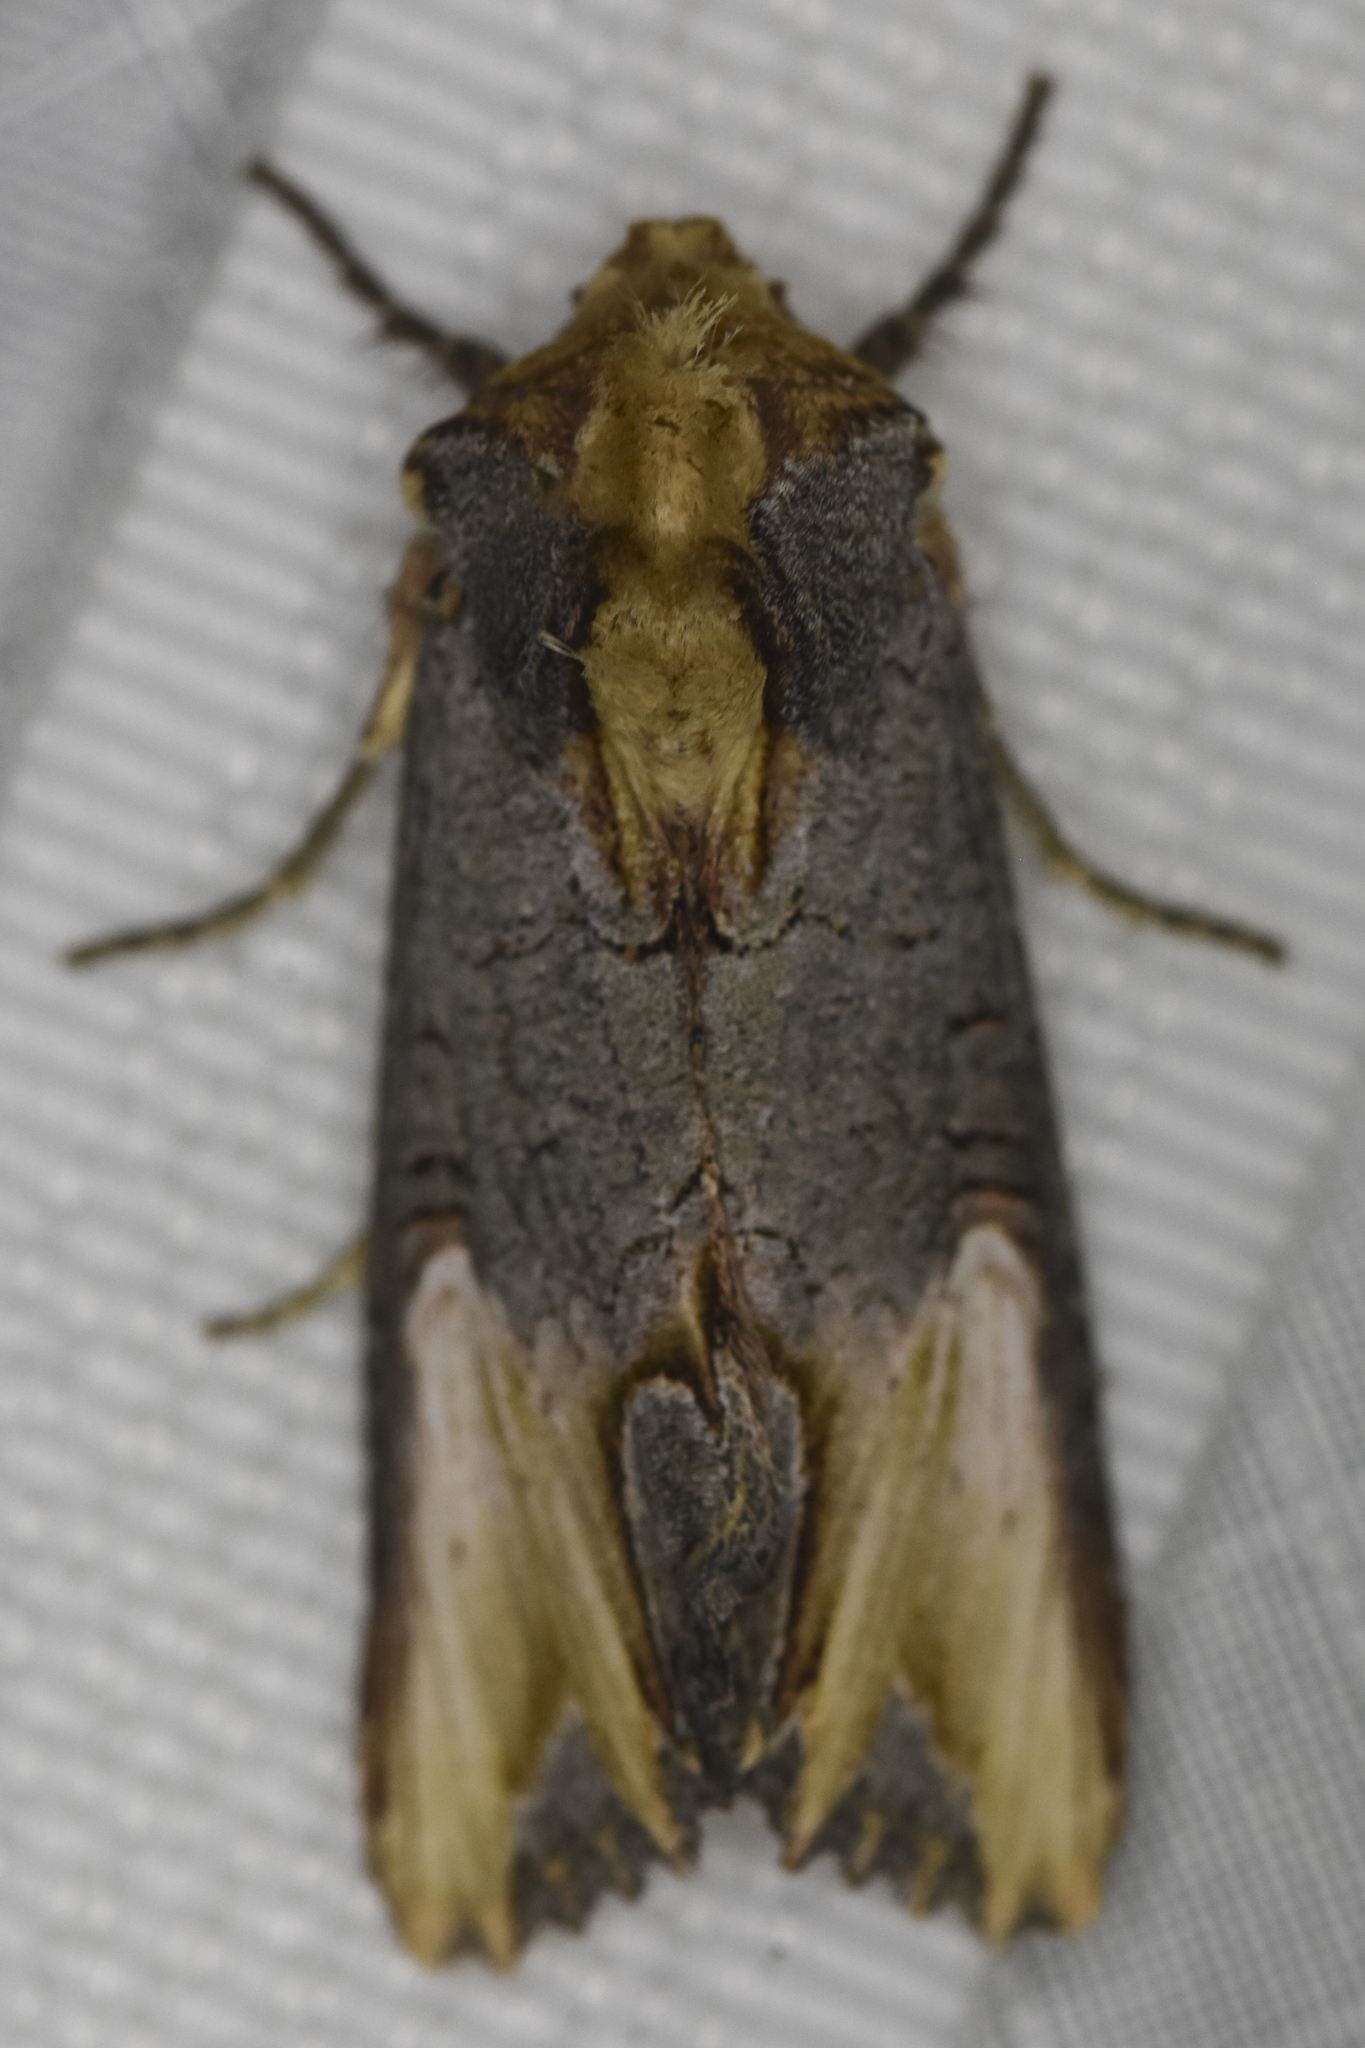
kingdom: Animalia
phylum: Arthropoda
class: Insecta
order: Lepidoptera
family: Noctuidae
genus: Admetovis
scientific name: Admetovis similaris
